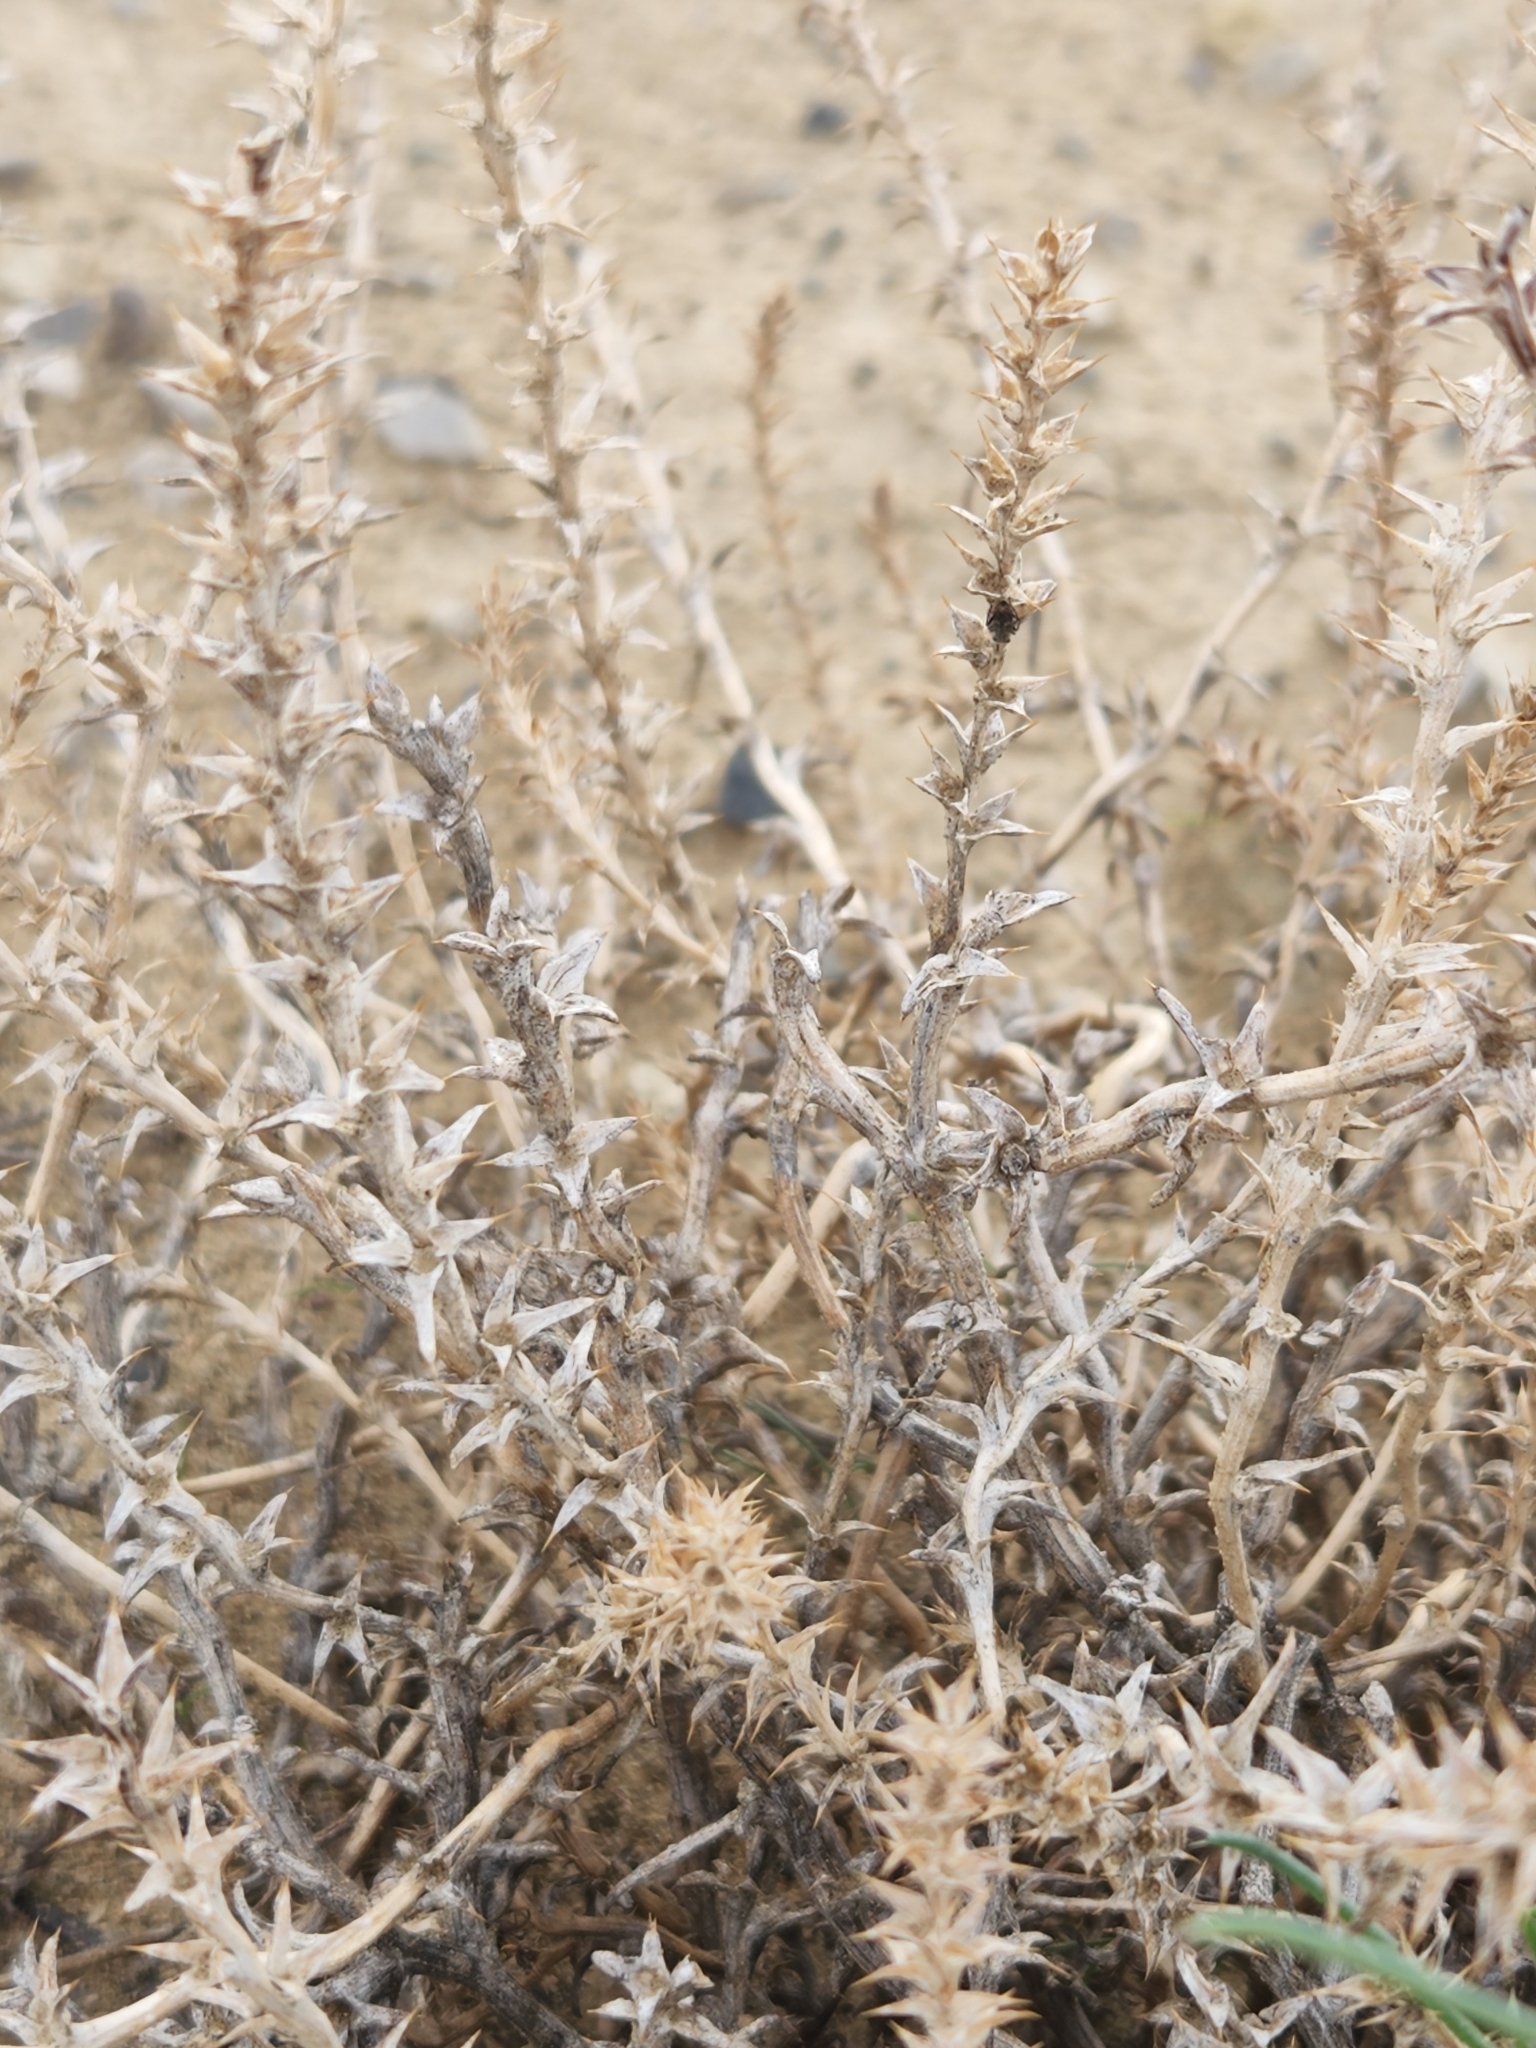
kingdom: Plantae
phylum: Tracheophyta
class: Magnoliopsida
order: Caryophyllales
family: Amaranthaceae
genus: Salsola
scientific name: Salsola tragus
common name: Prickly russian thistle
